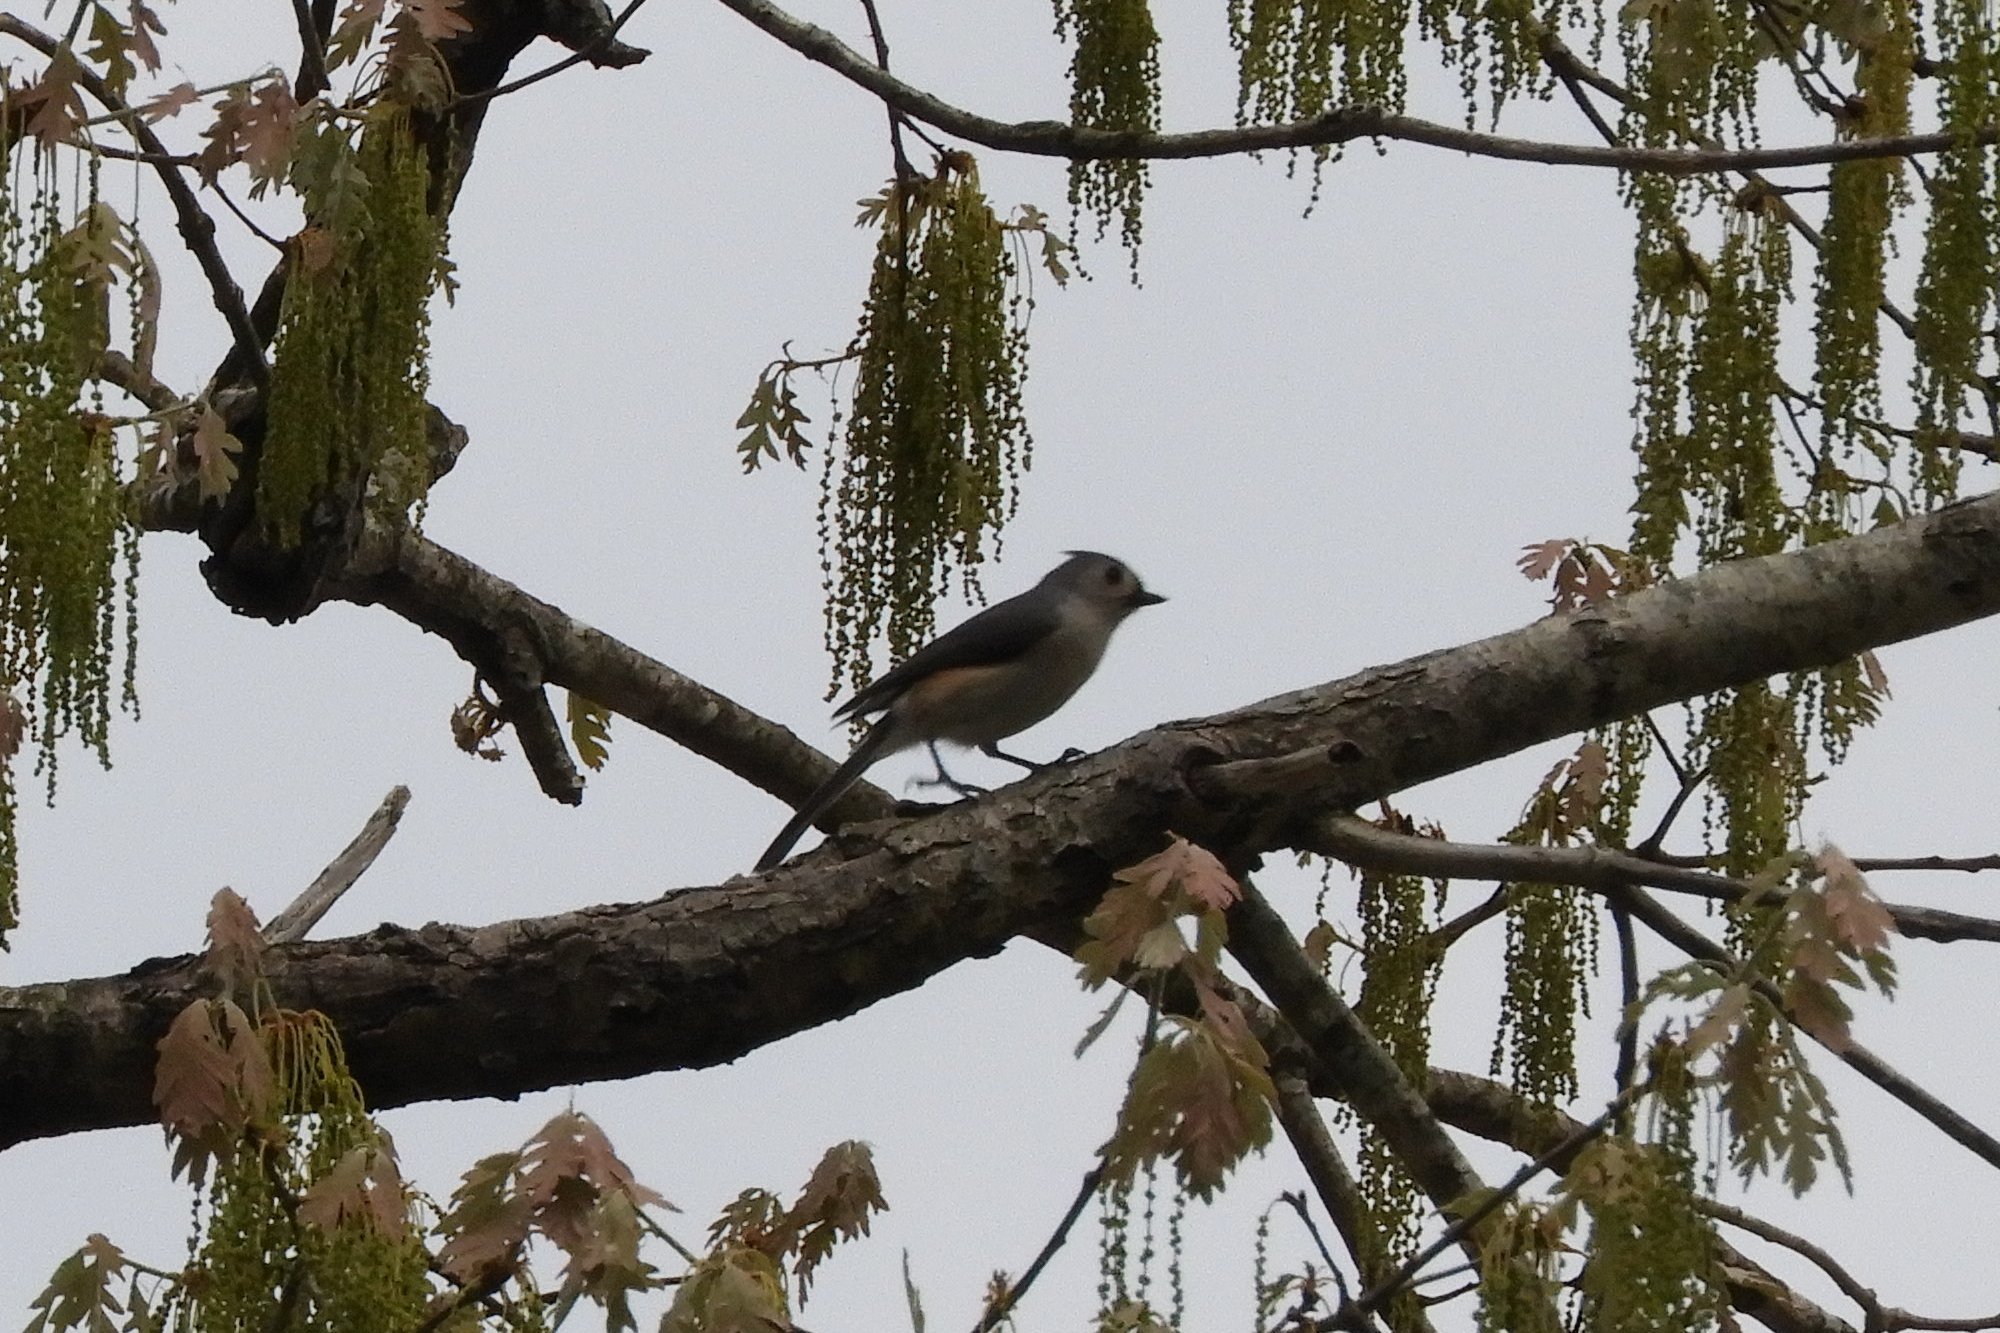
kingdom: Animalia
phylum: Chordata
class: Aves
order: Passeriformes
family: Paridae
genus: Baeolophus
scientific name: Baeolophus bicolor
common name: Tufted titmouse
